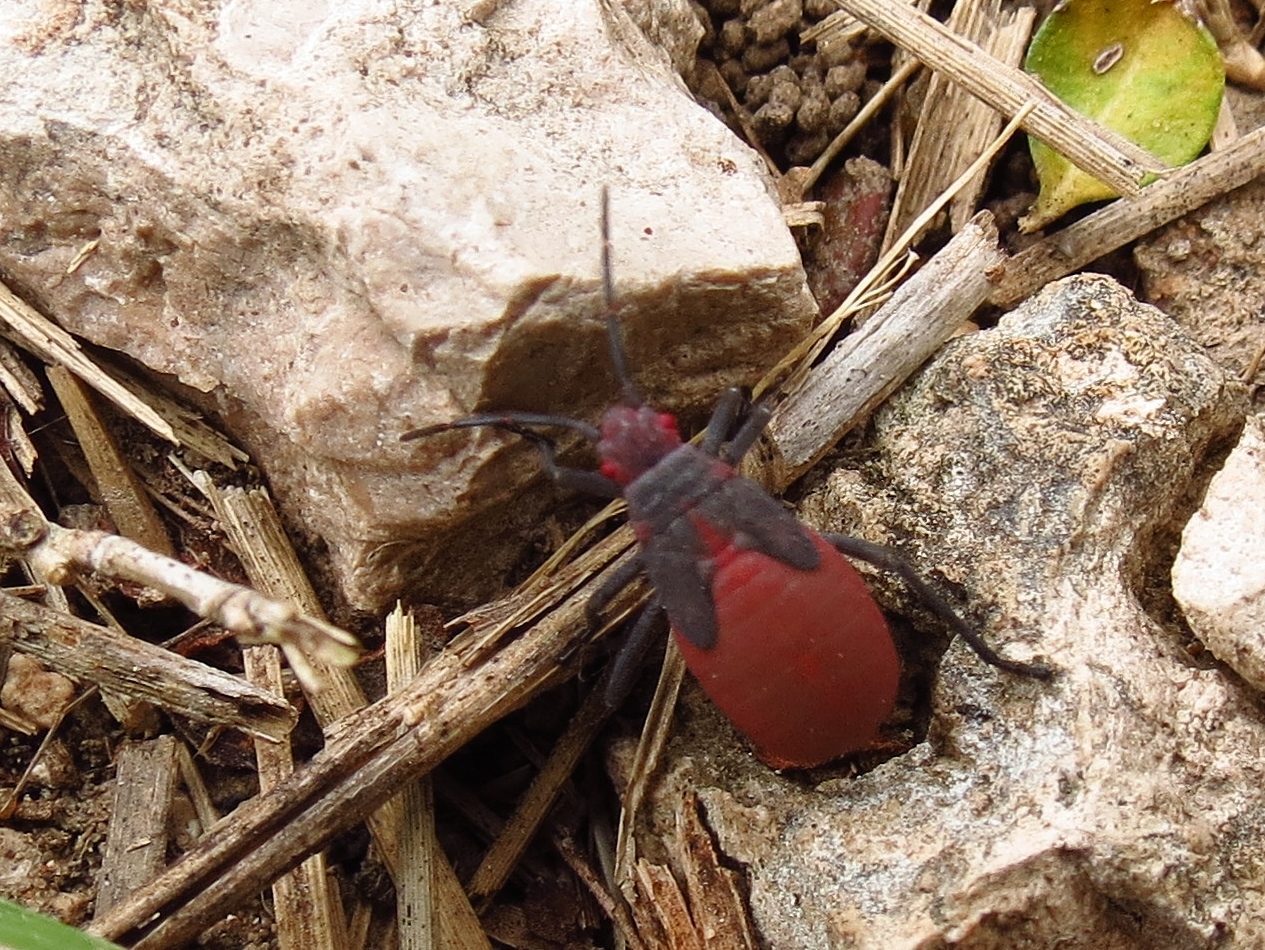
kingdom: Animalia
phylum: Arthropoda
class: Insecta
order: Hemiptera
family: Rhopalidae
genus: Jadera
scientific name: Jadera haematoloma
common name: Red-shouldered bug
